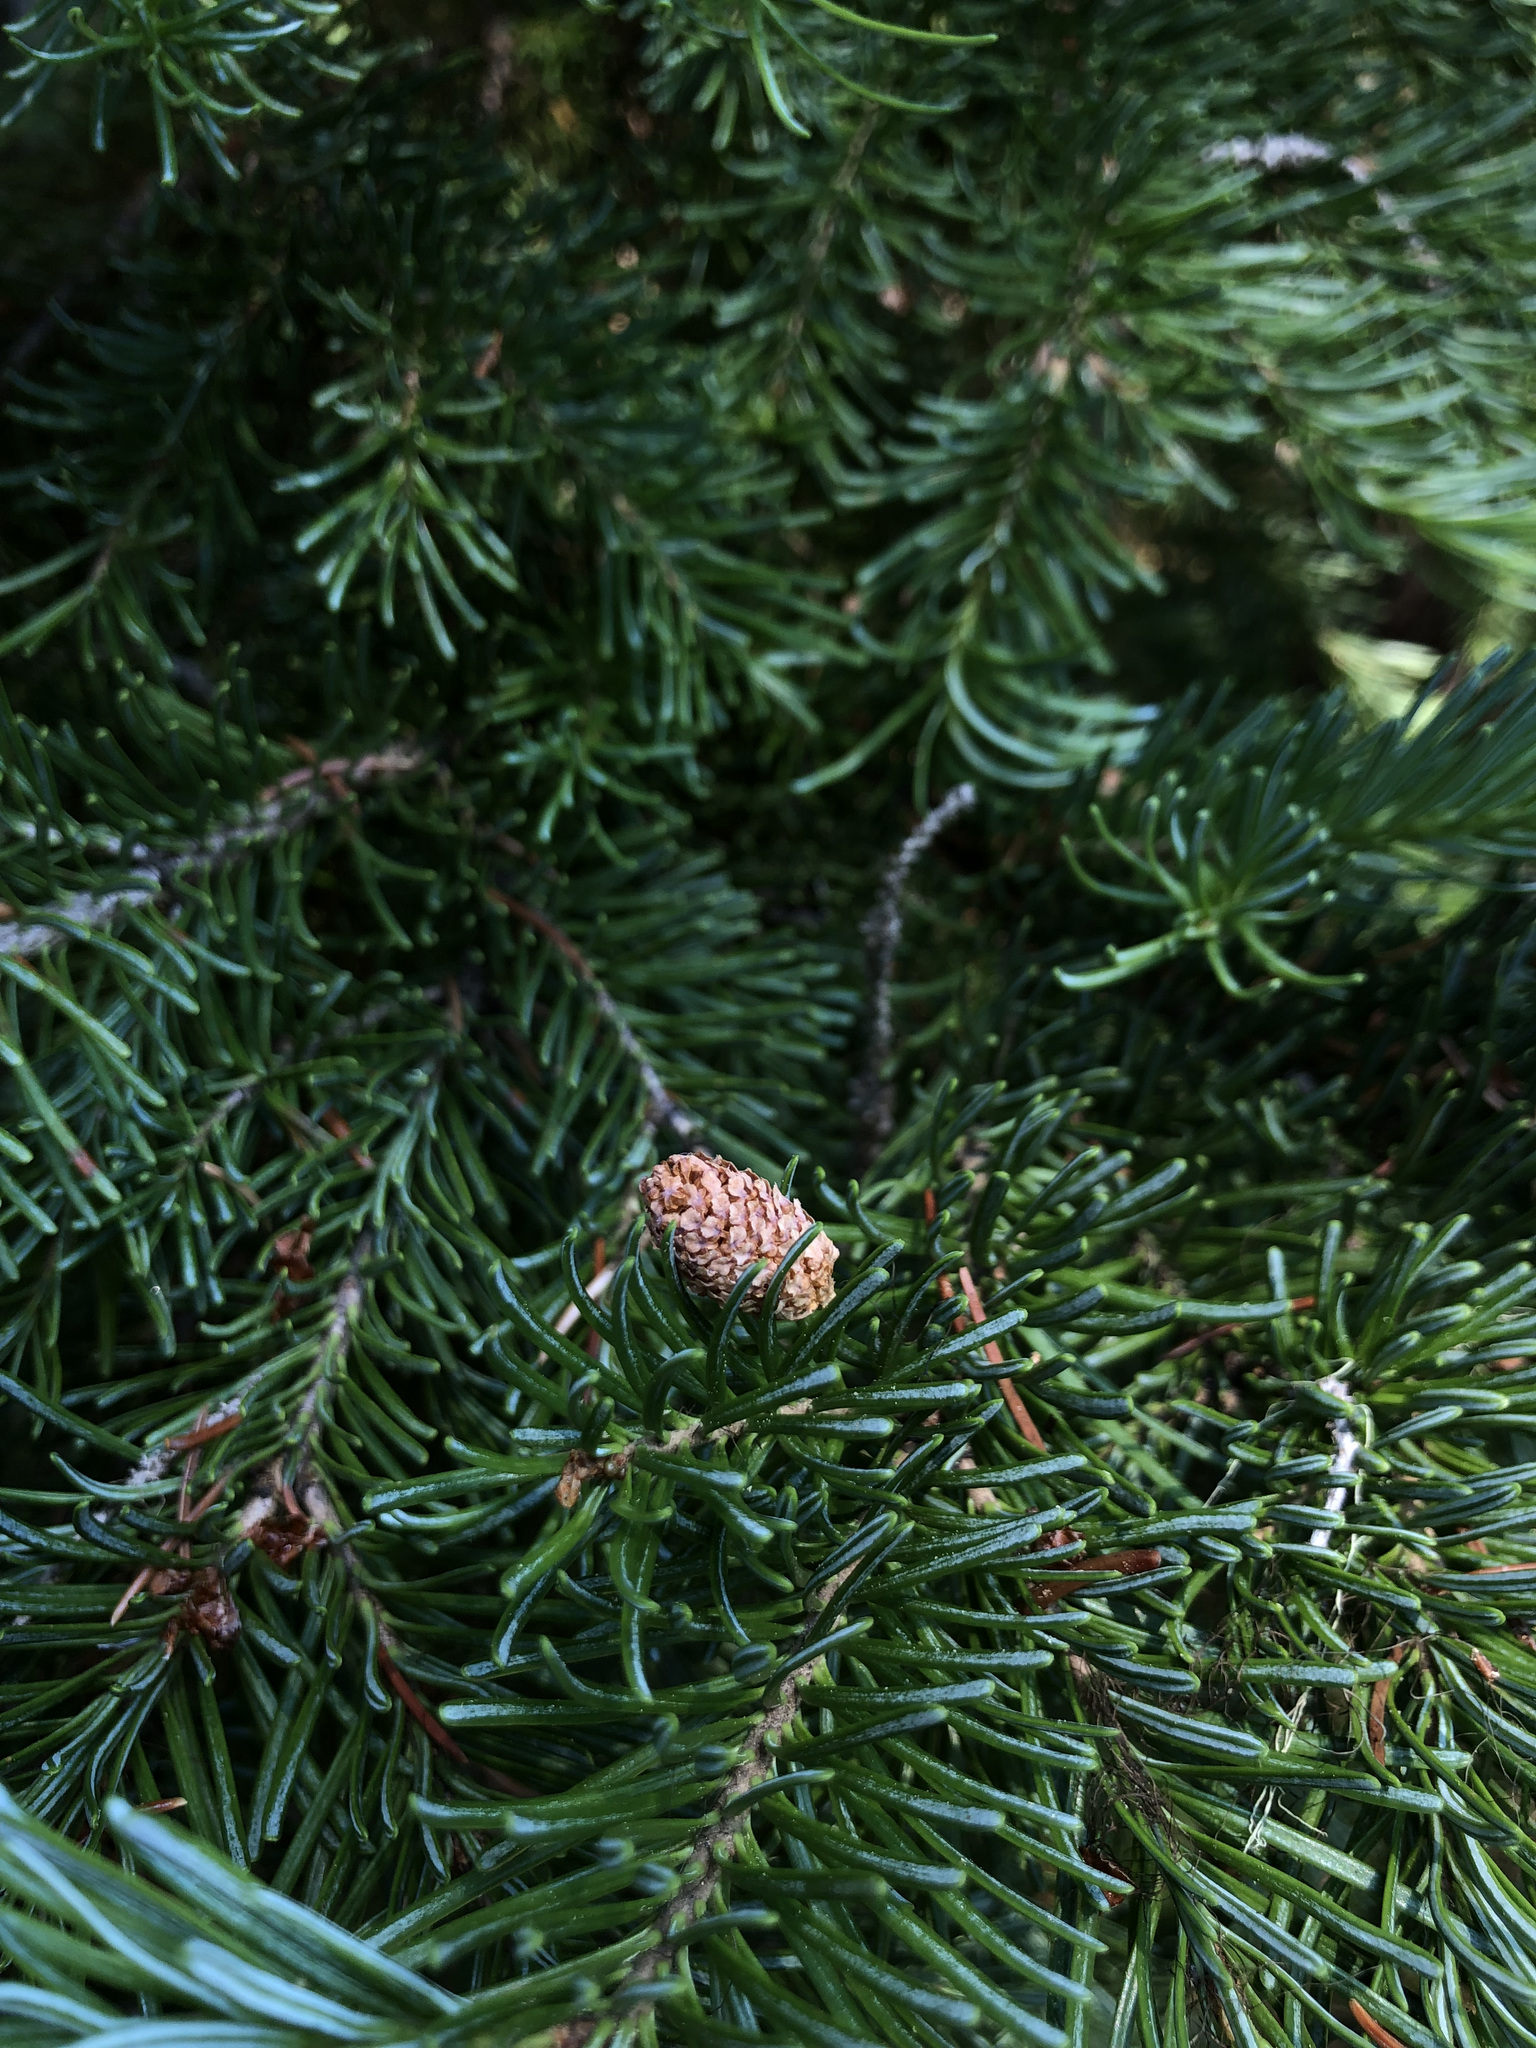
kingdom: Plantae
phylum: Tracheophyta
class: Pinopsida
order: Pinales
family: Pinaceae
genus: Abies
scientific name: Abies lasiocarpa
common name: Subalpine fir
